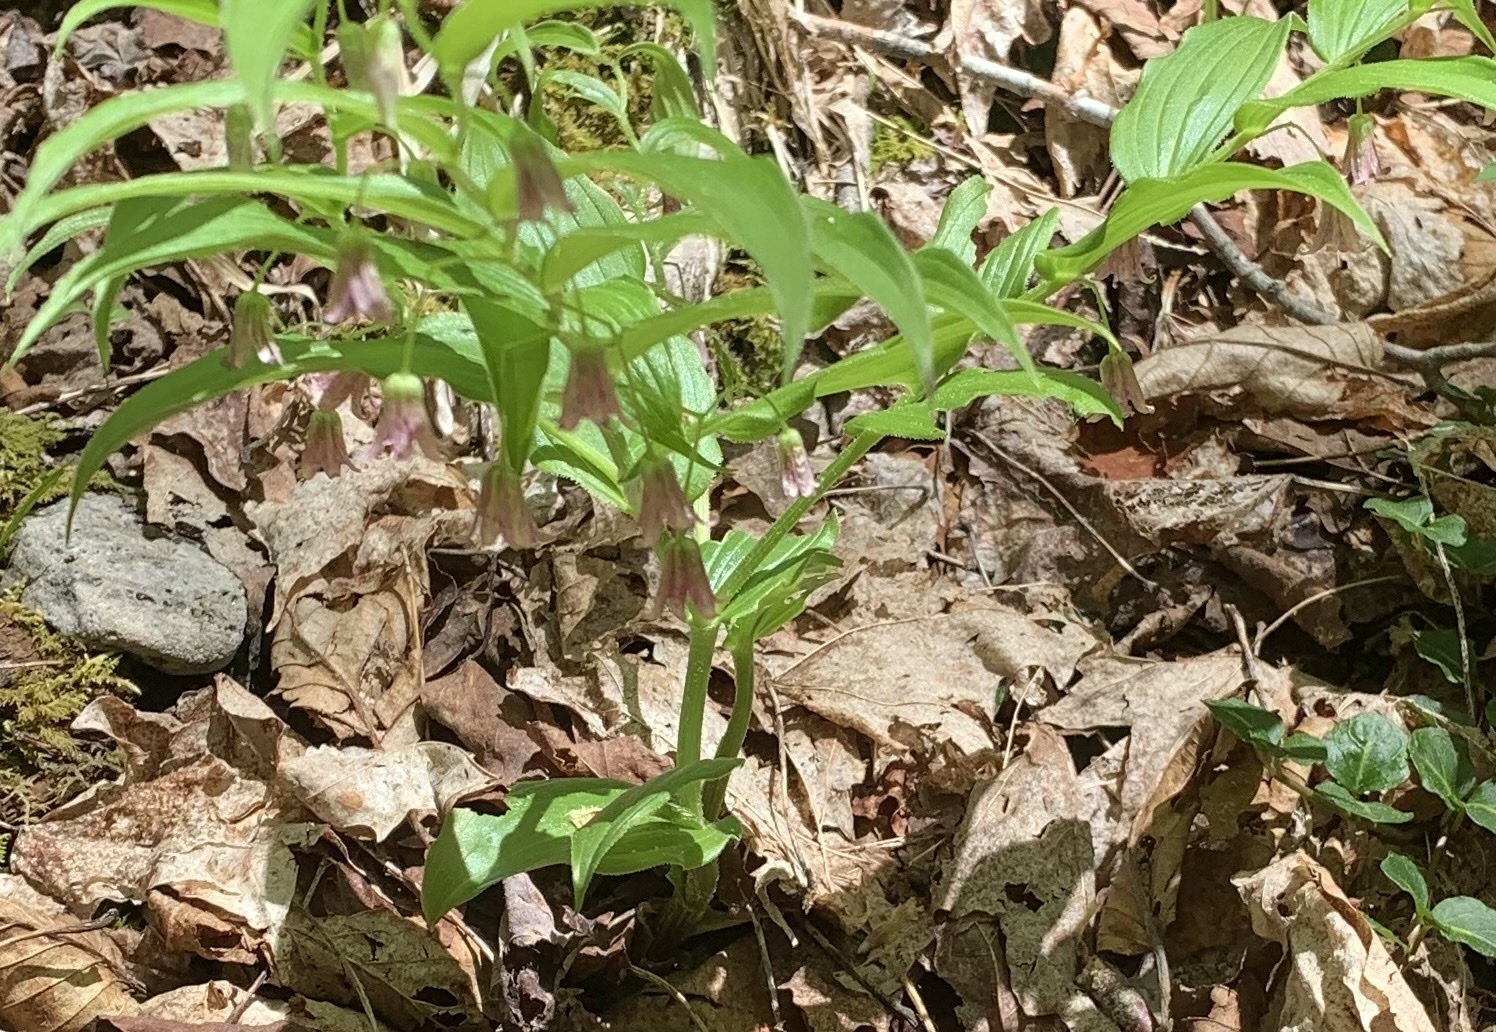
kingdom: Plantae
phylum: Tracheophyta
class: Liliopsida
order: Liliales
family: Liliaceae
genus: Streptopus
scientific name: Streptopus lanceolatus
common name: Rose mandarin
